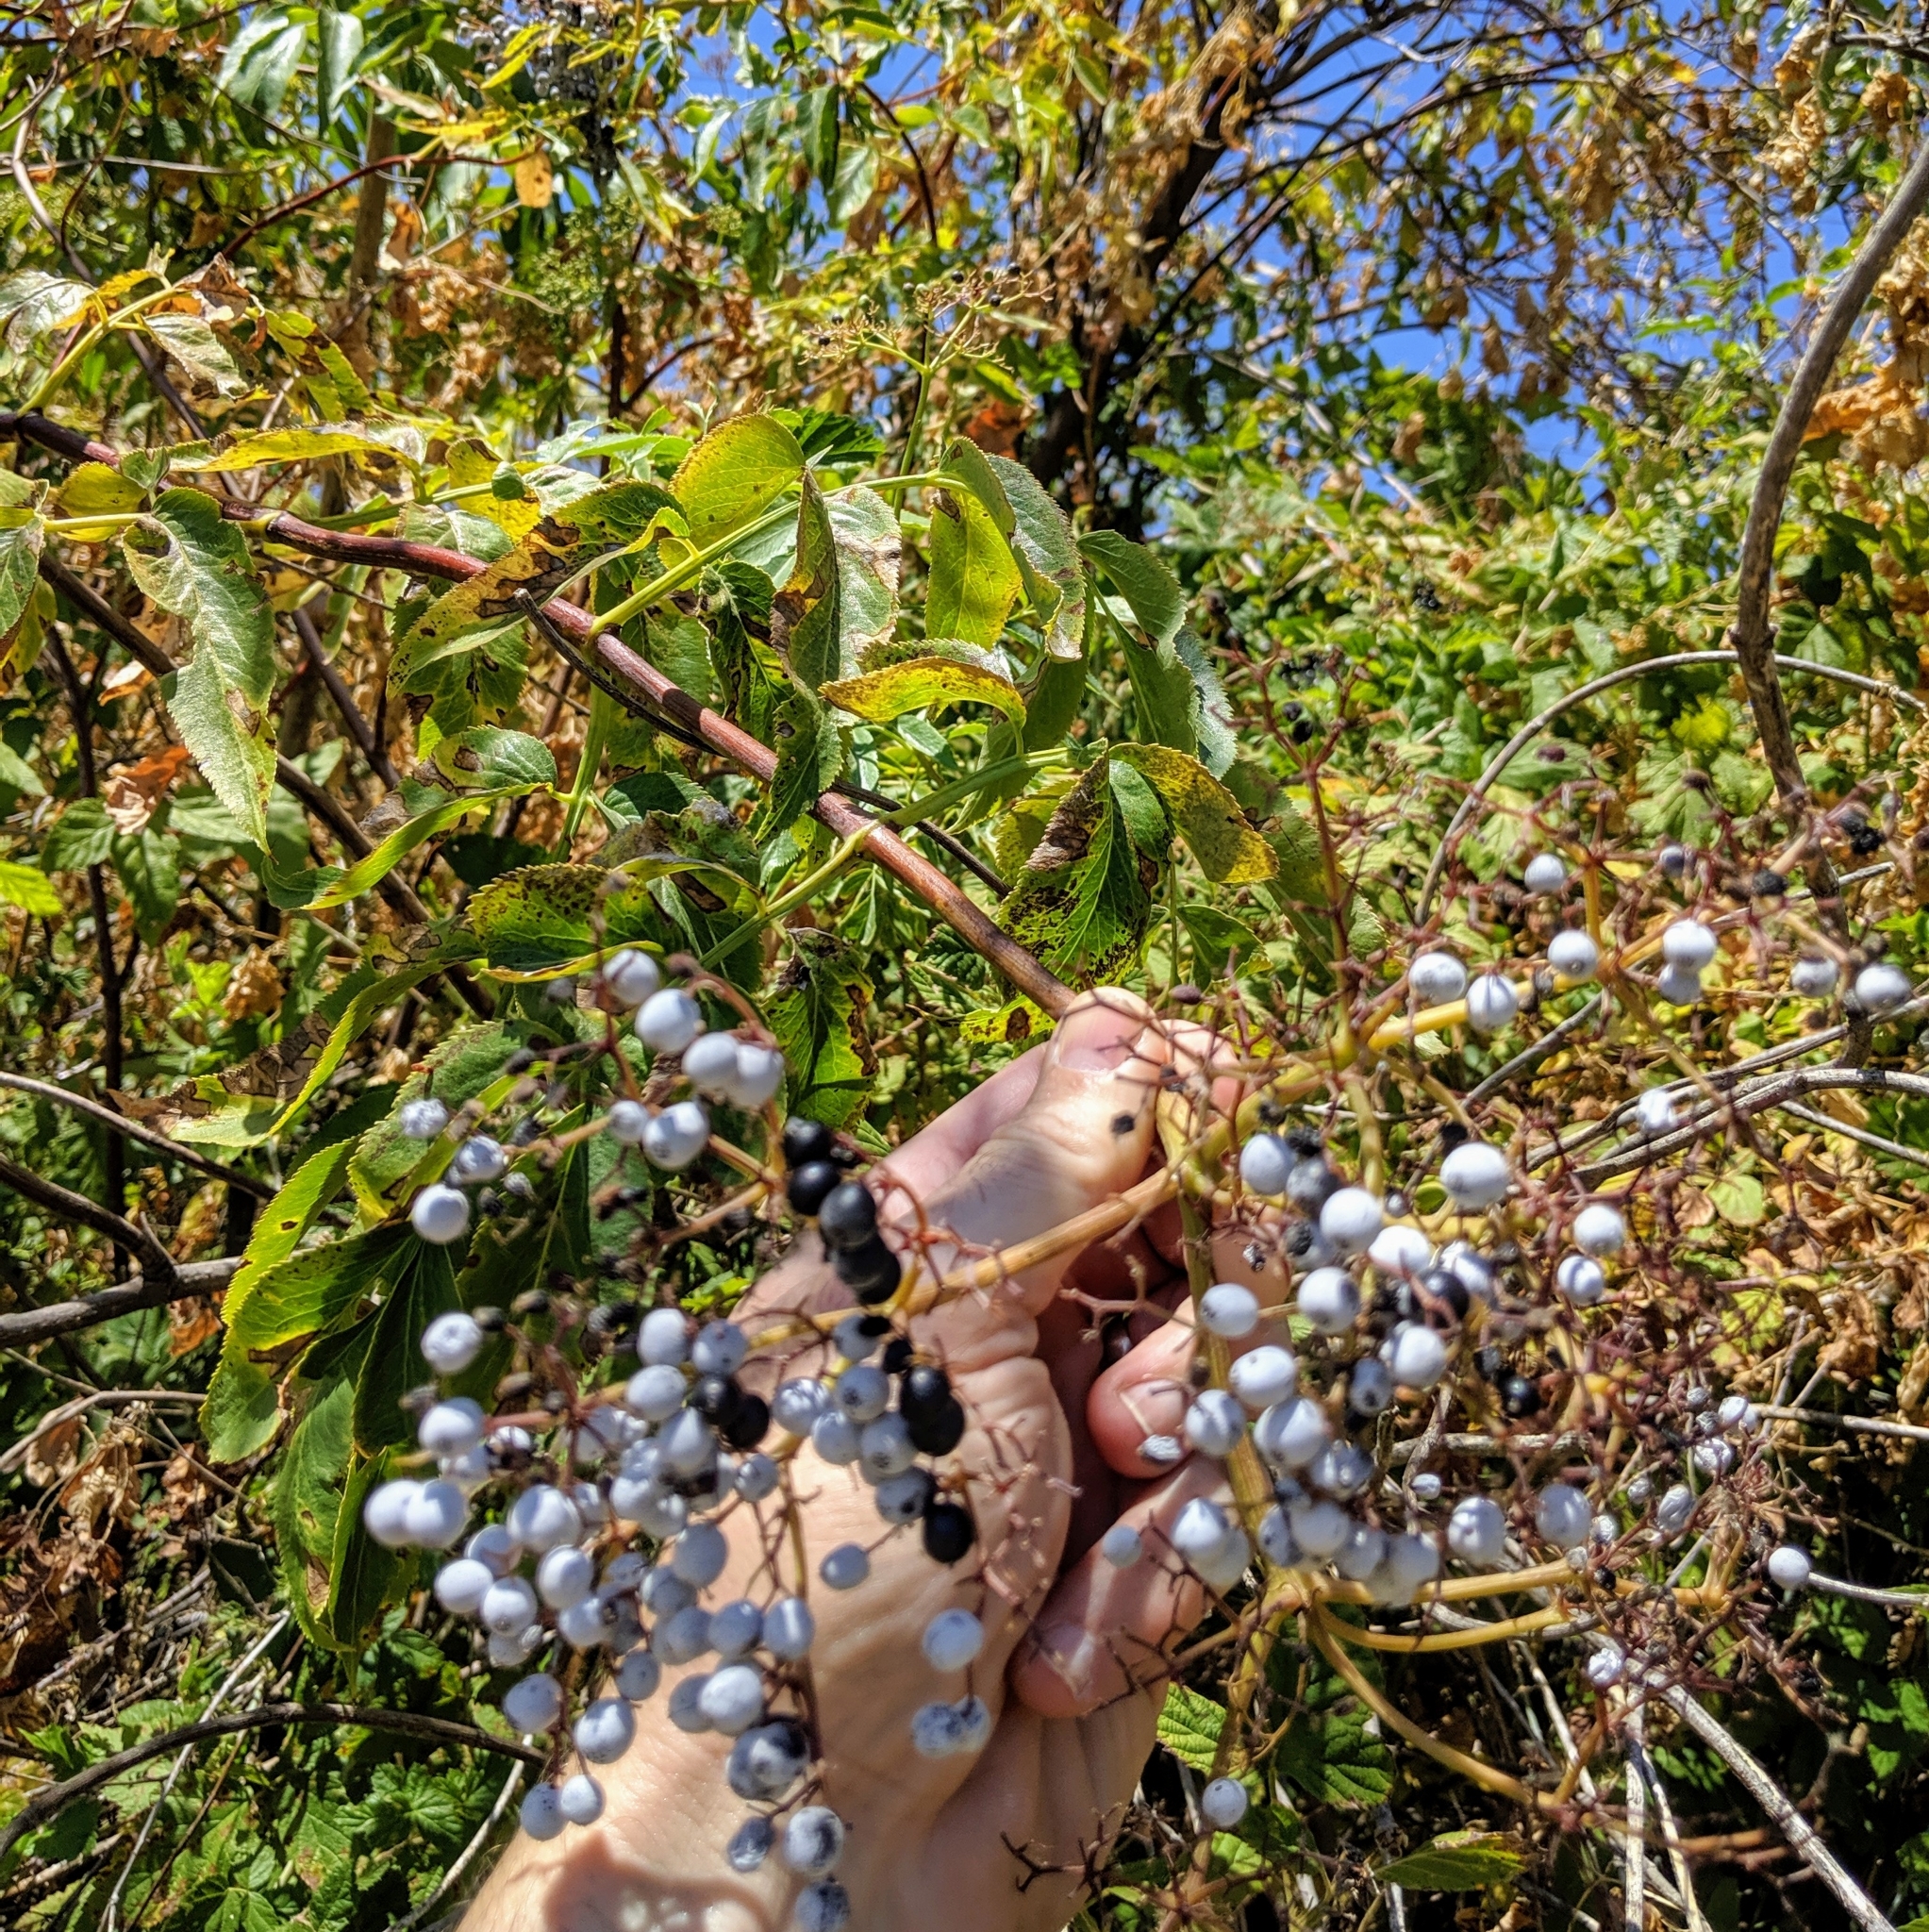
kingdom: Plantae
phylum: Tracheophyta
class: Magnoliopsida
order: Dipsacales
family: Viburnaceae
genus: Sambucus
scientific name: Sambucus cerulea
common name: Blue elder
